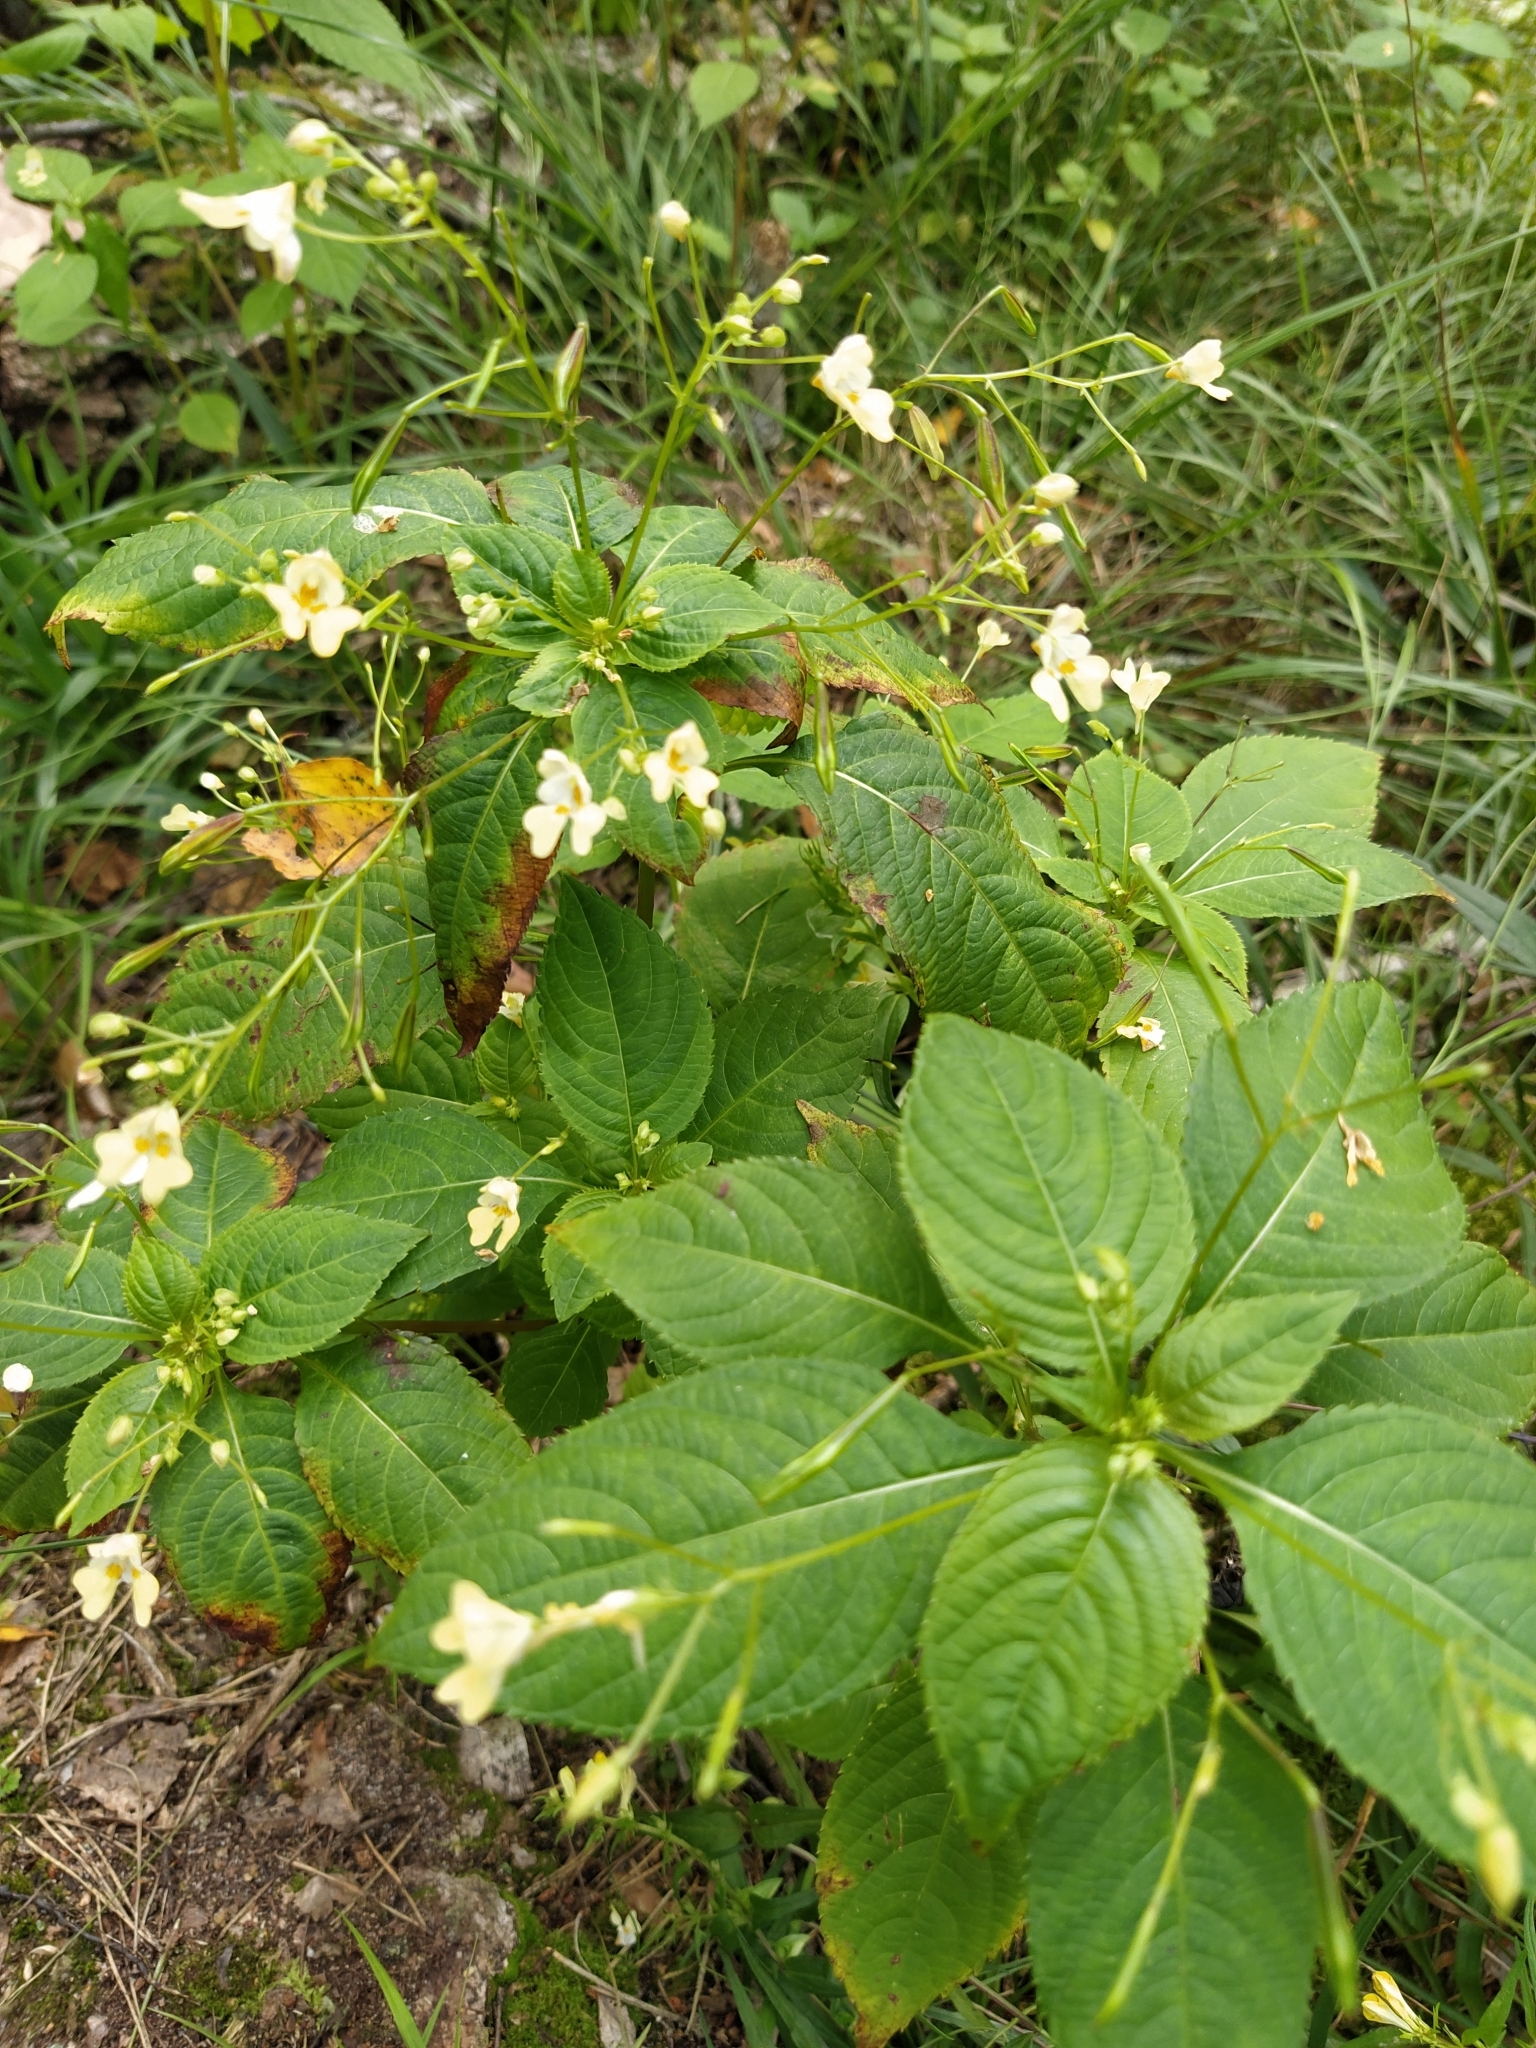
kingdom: Plantae
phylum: Tracheophyta
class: Magnoliopsida
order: Ericales
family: Balsaminaceae
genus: Impatiens
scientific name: Impatiens parviflora
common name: Small balsam
